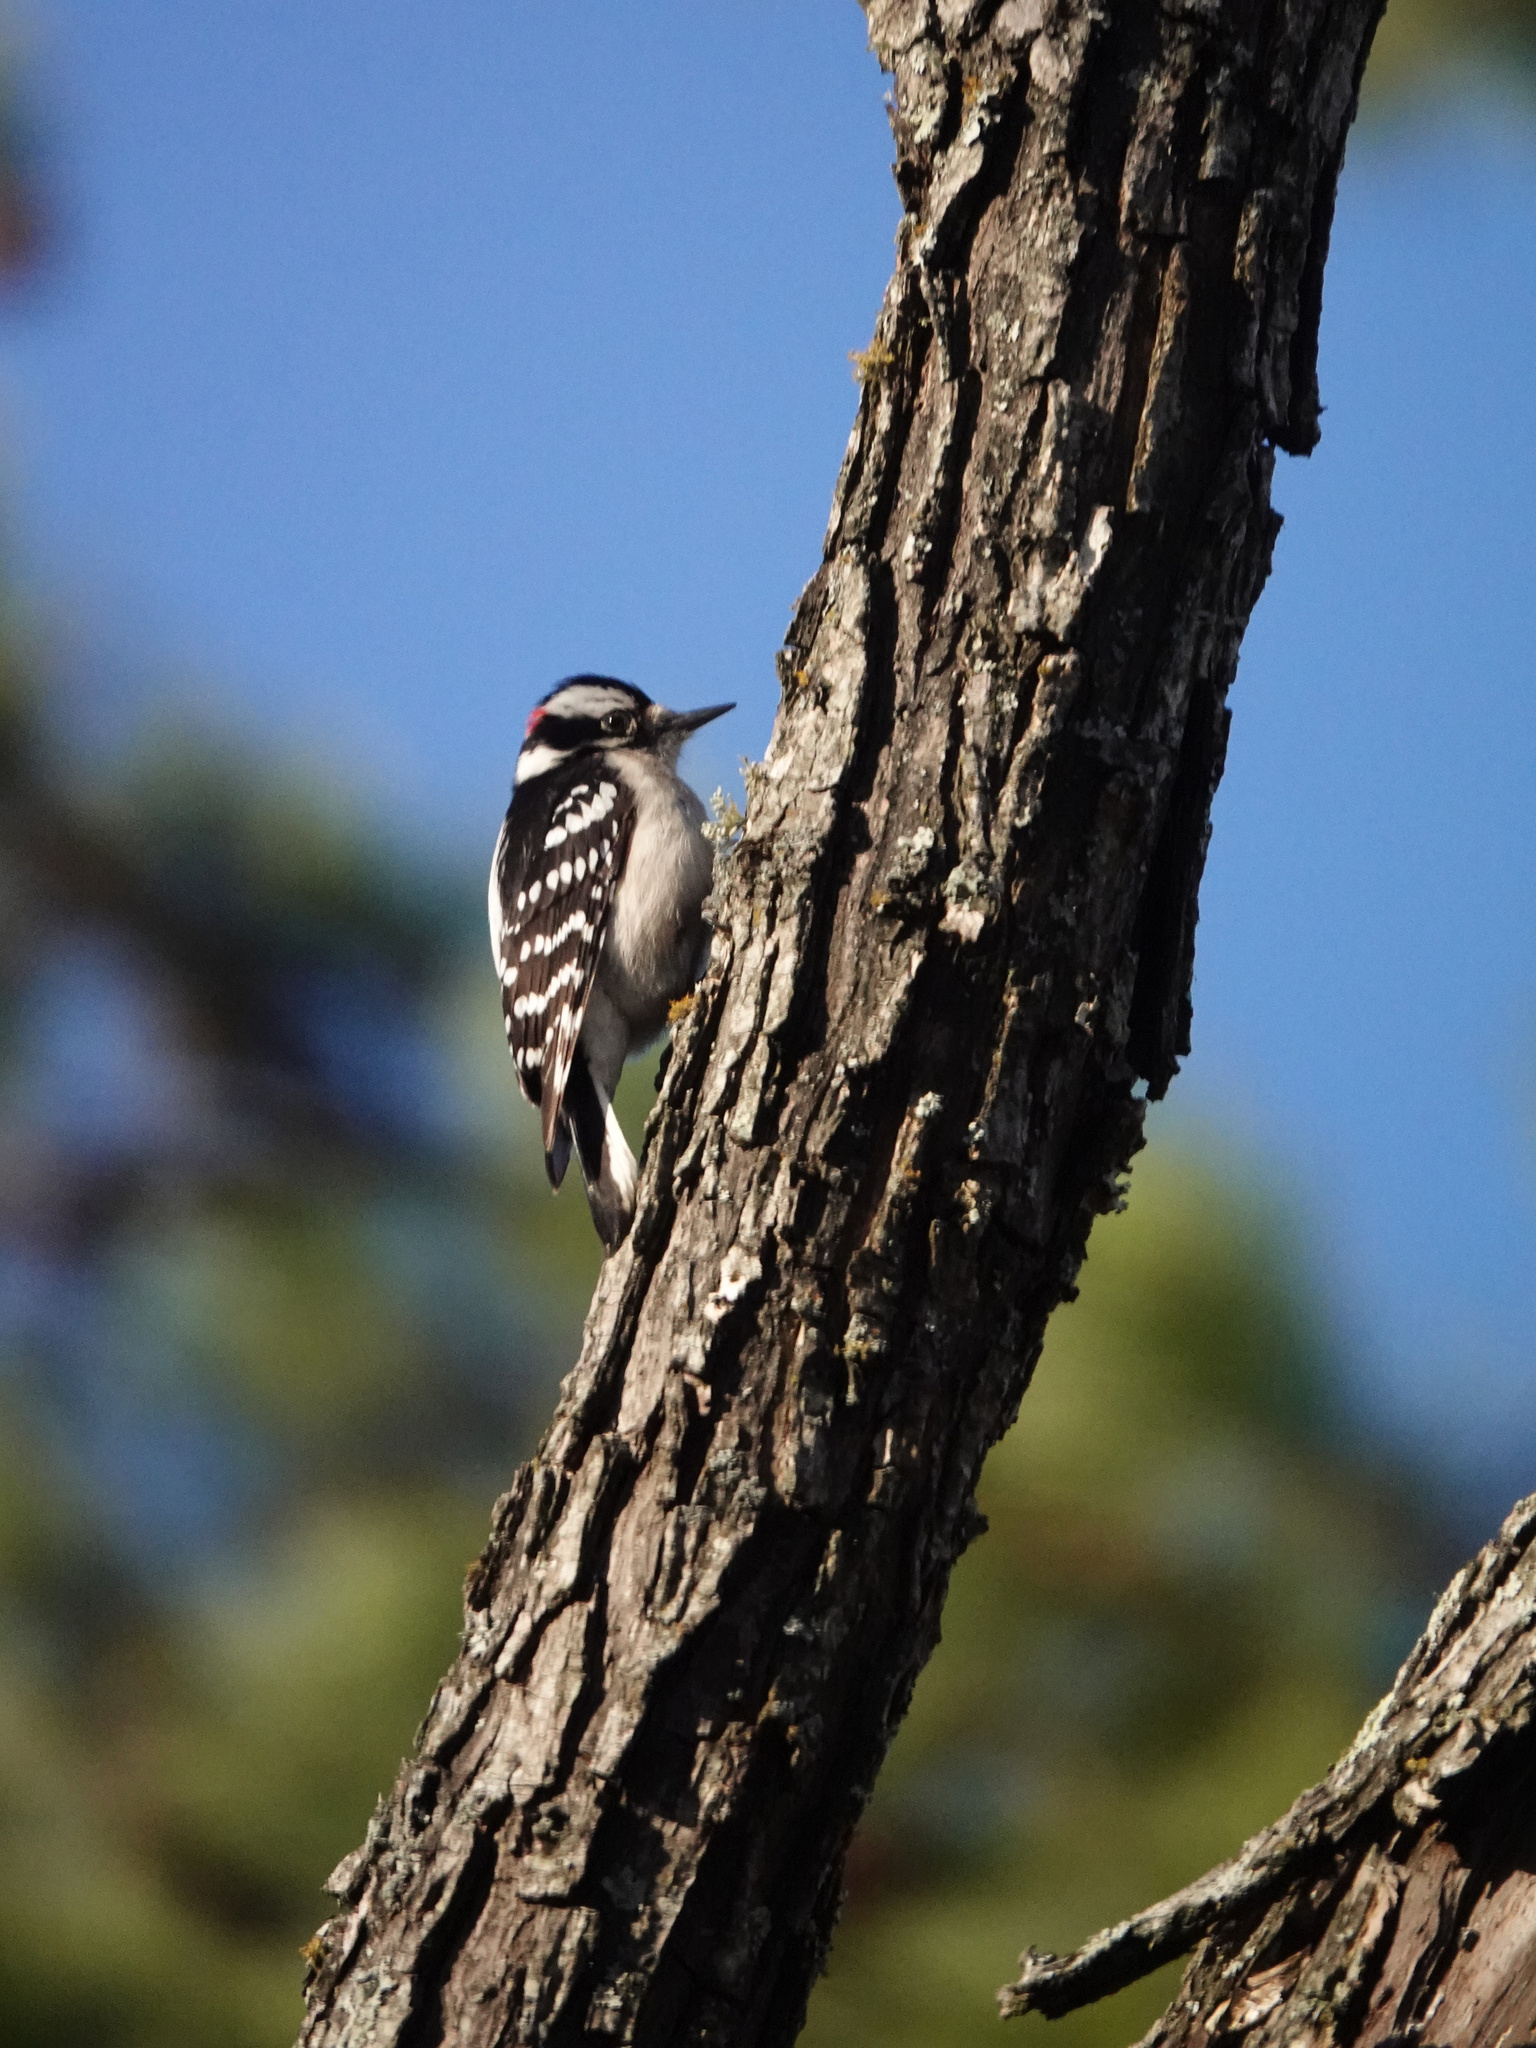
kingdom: Animalia
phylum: Chordata
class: Aves
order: Piciformes
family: Picidae
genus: Dryobates
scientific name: Dryobates pubescens
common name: Downy woodpecker
